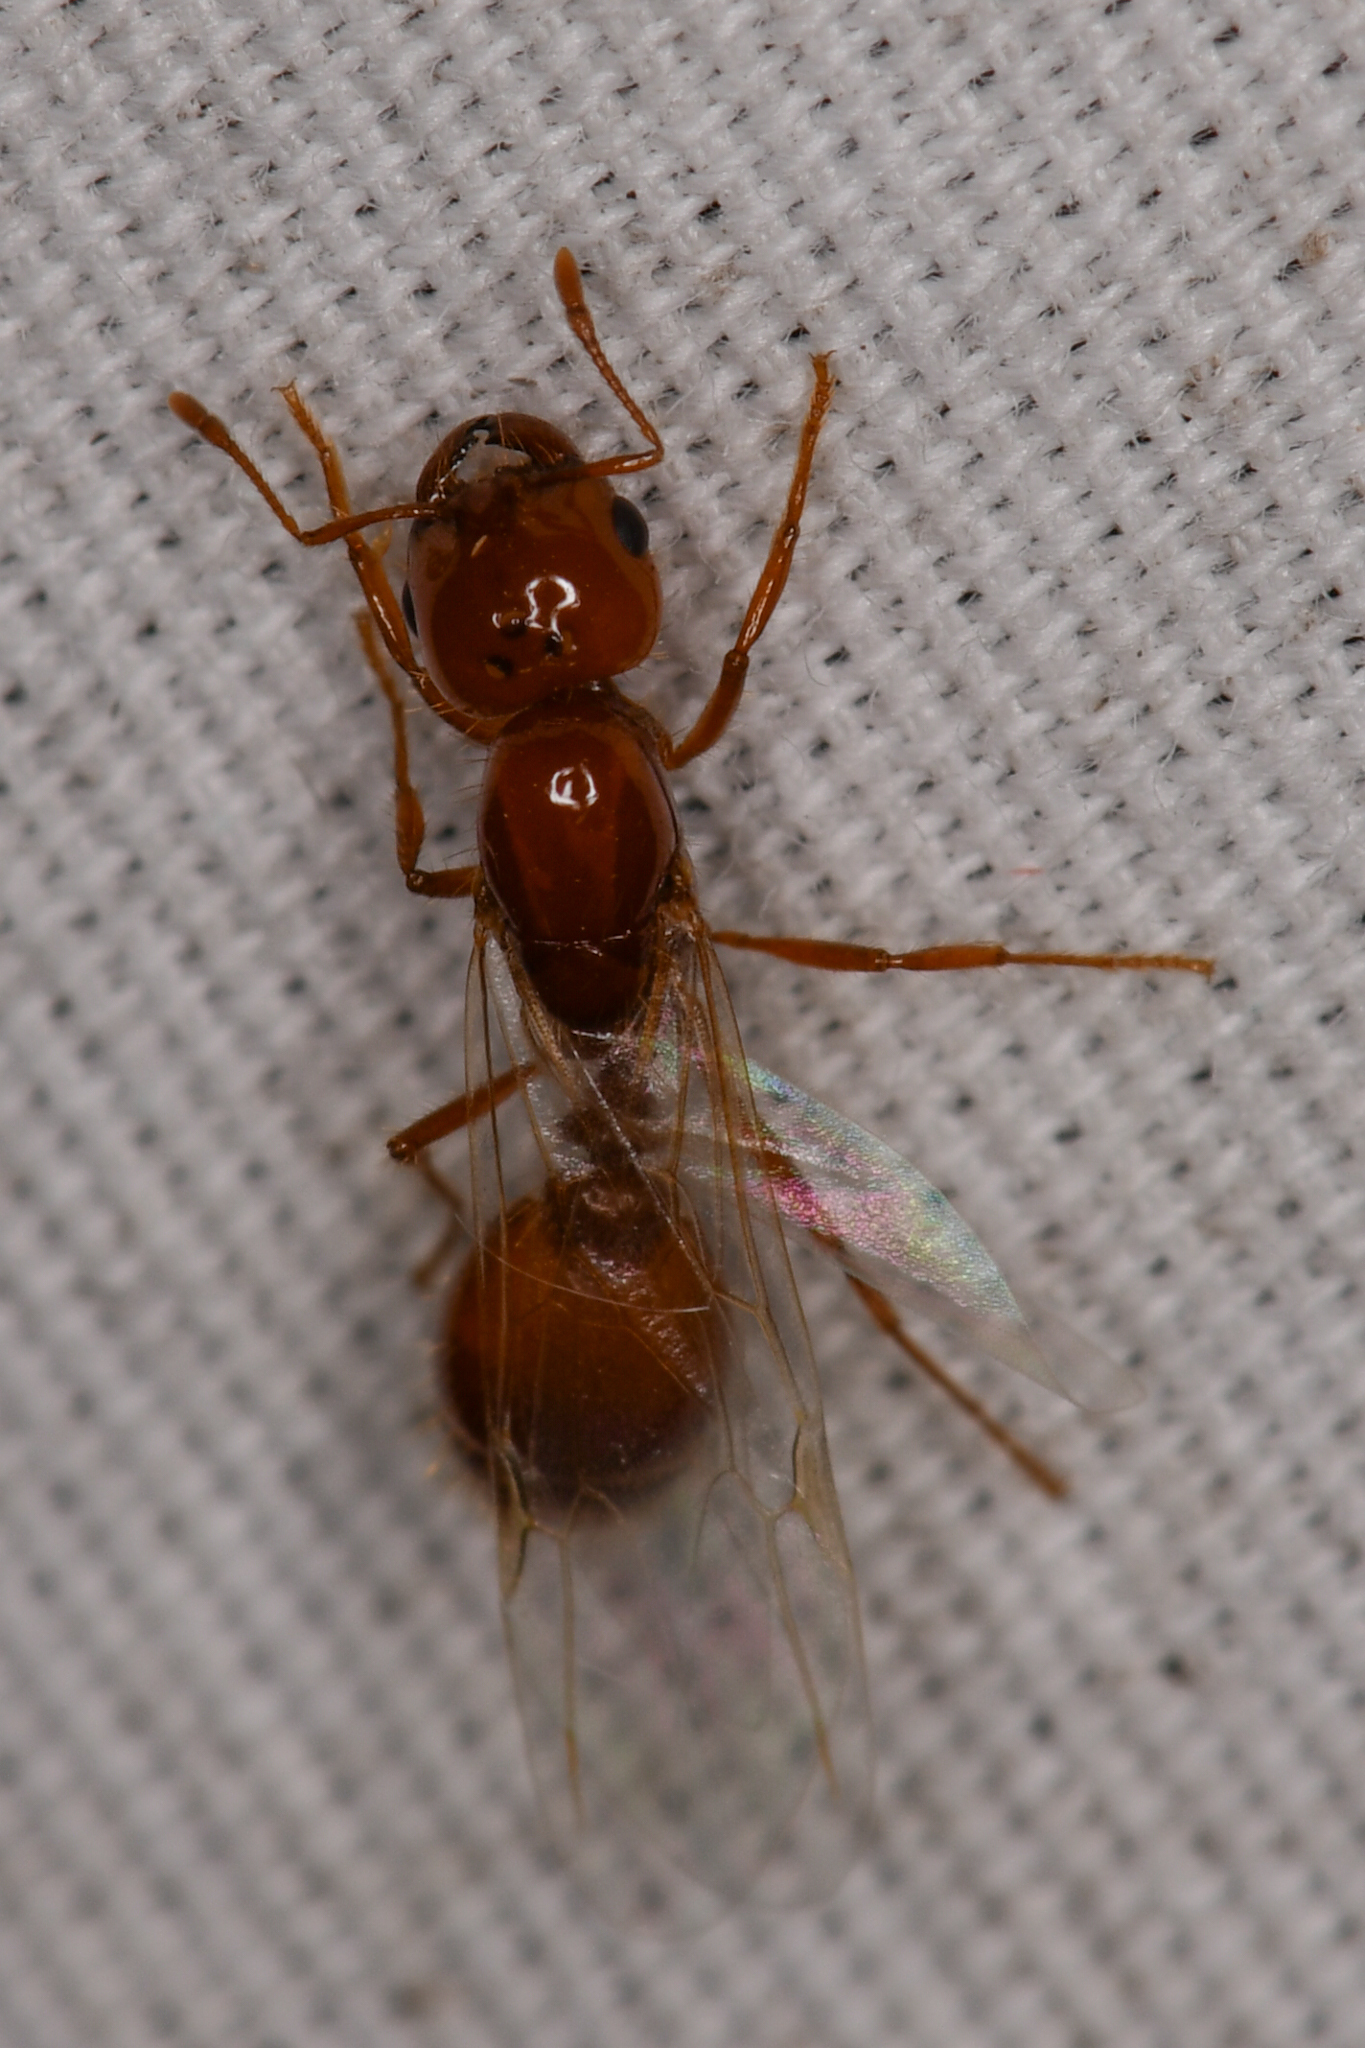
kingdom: Animalia
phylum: Arthropoda
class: Insecta
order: Hymenoptera
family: Formicidae
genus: Solenopsis
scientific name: Solenopsis amblychila
